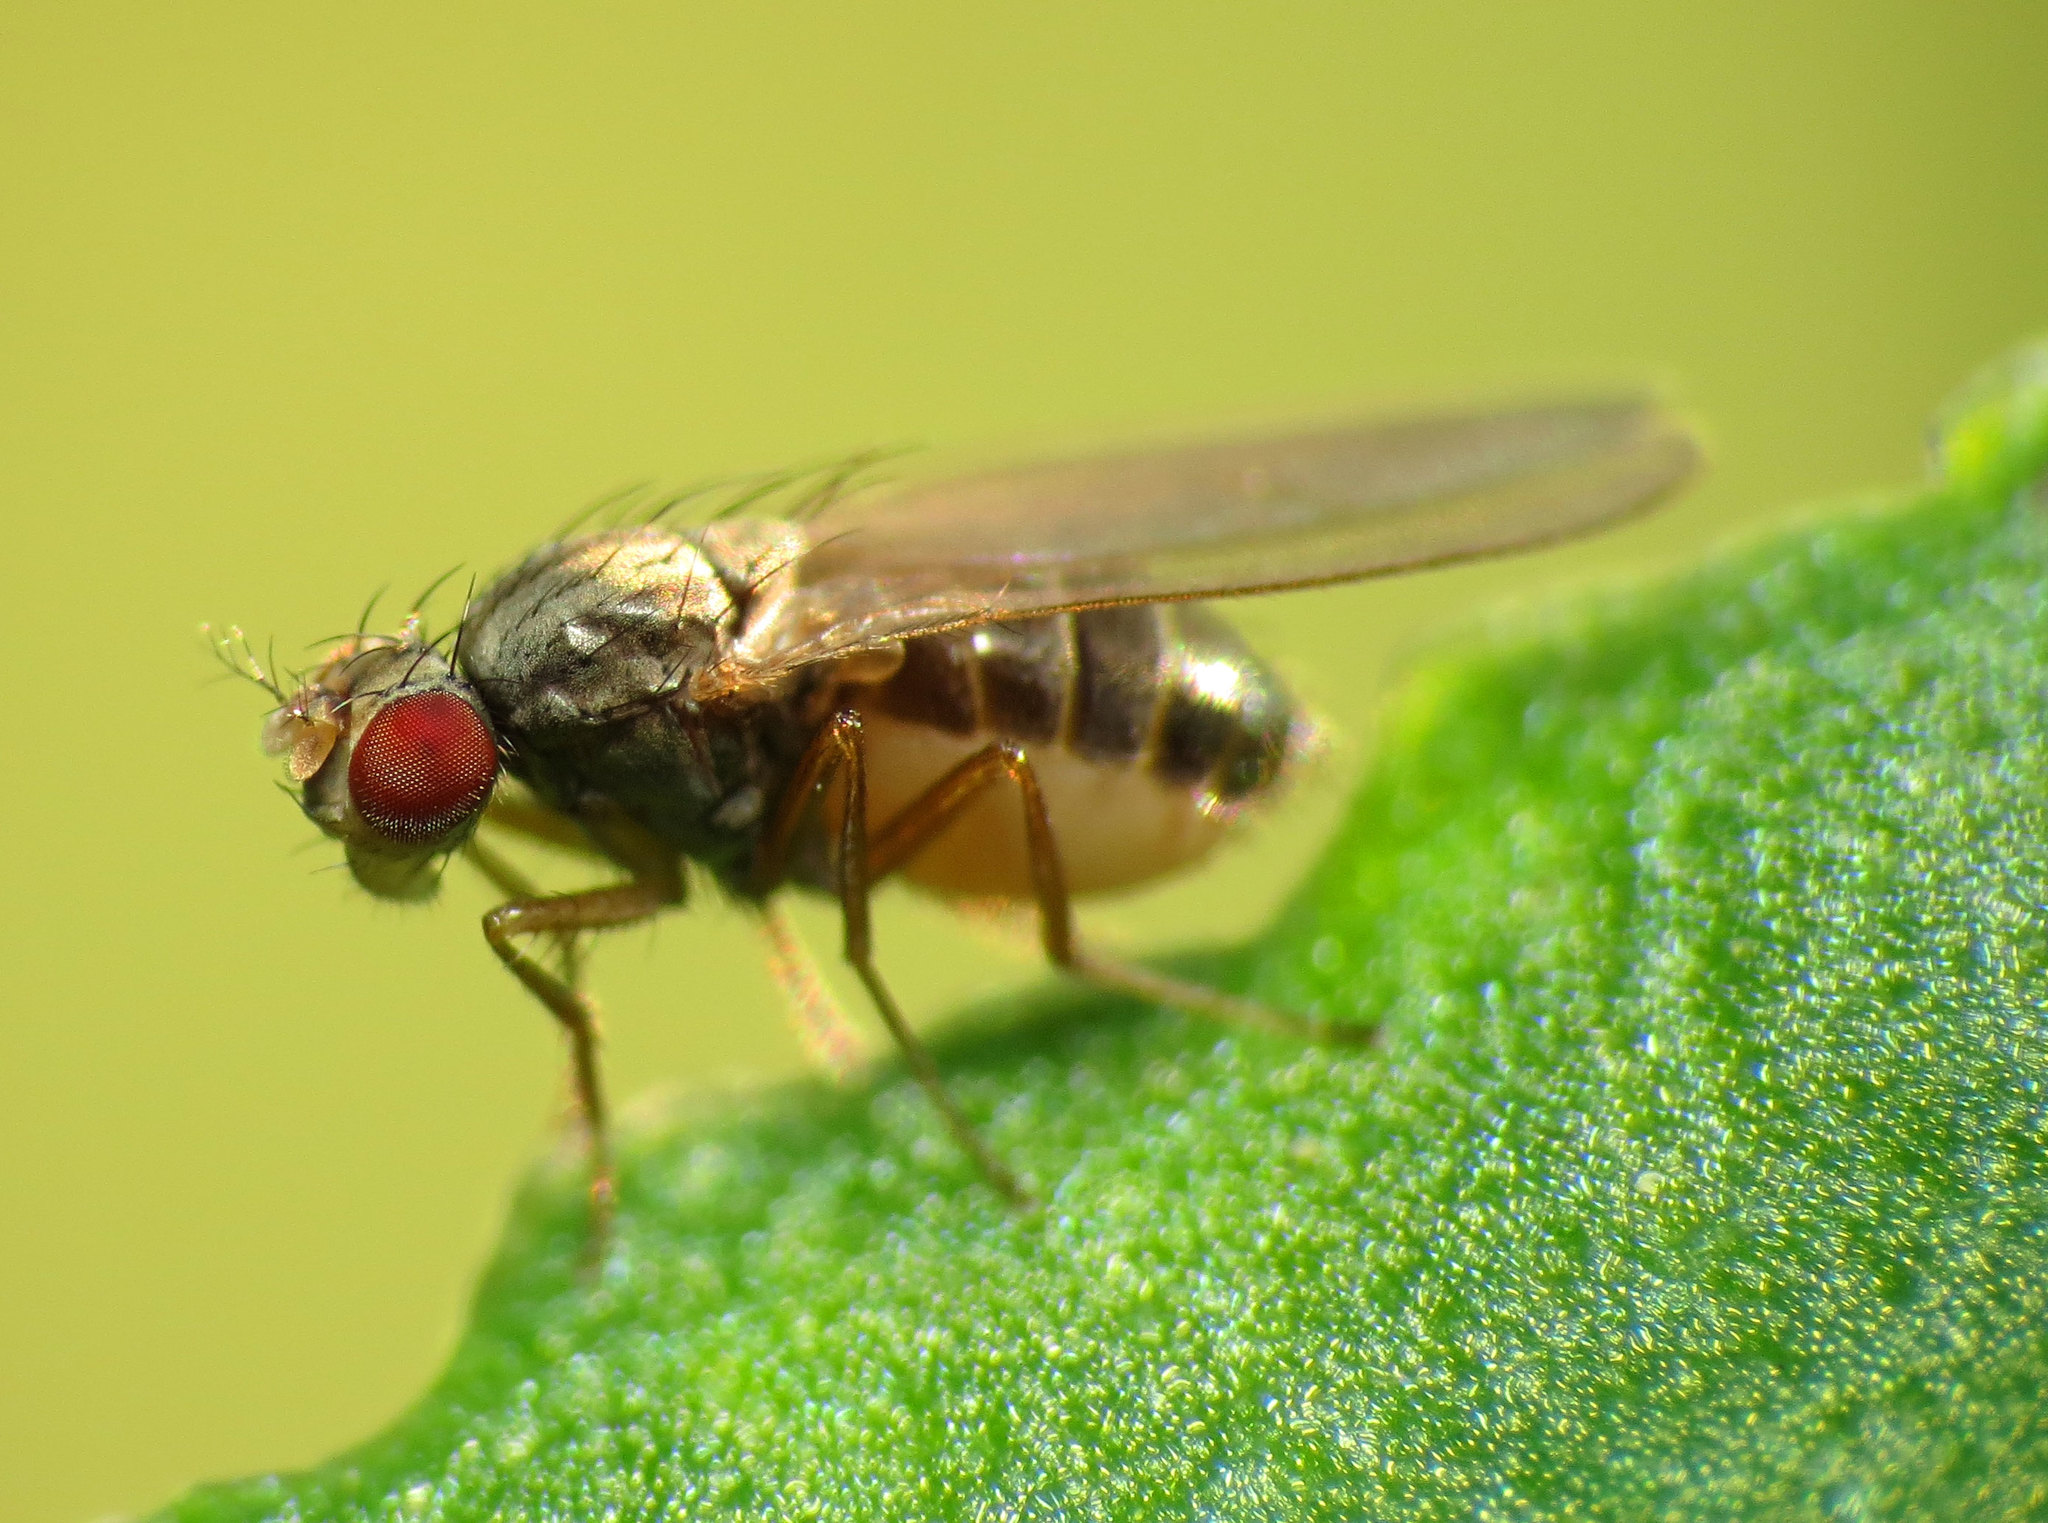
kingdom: Animalia
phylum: Arthropoda
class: Insecta
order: Diptera
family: Drosophilidae
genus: Scaptomyza
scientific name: Scaptomyza pallida
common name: Pomace fly
